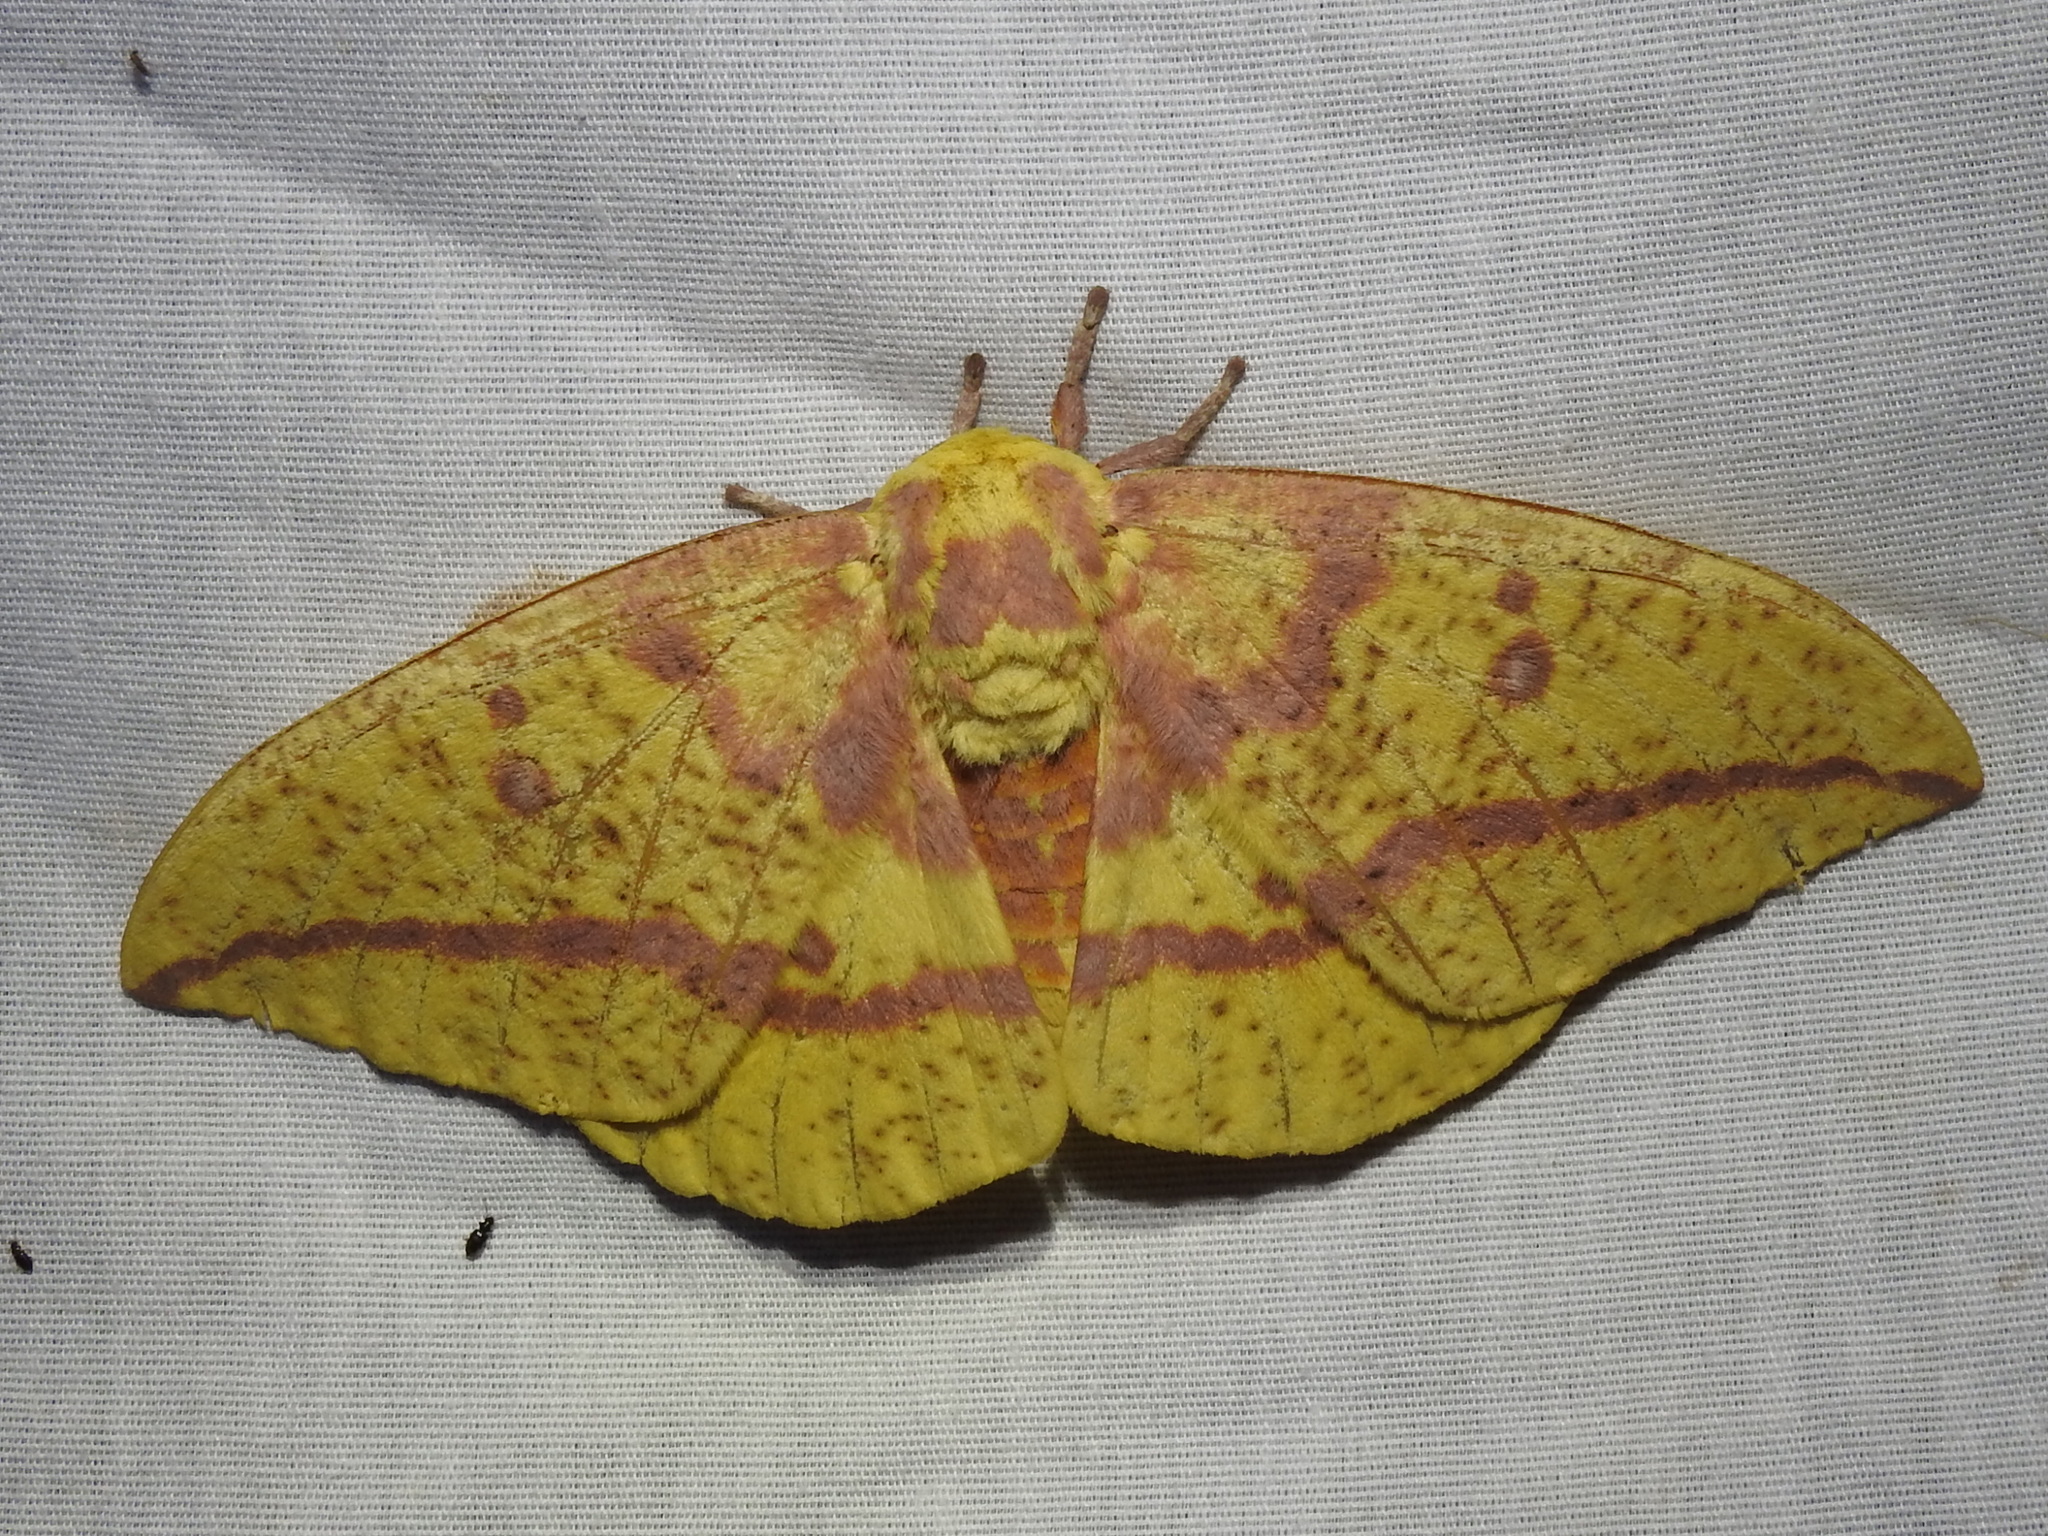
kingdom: Animalia
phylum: Arthropoda
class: Insecta
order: Lepidoptera
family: Saturniidae
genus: Eacles
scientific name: Eacles imperialis
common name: Imperial moth
